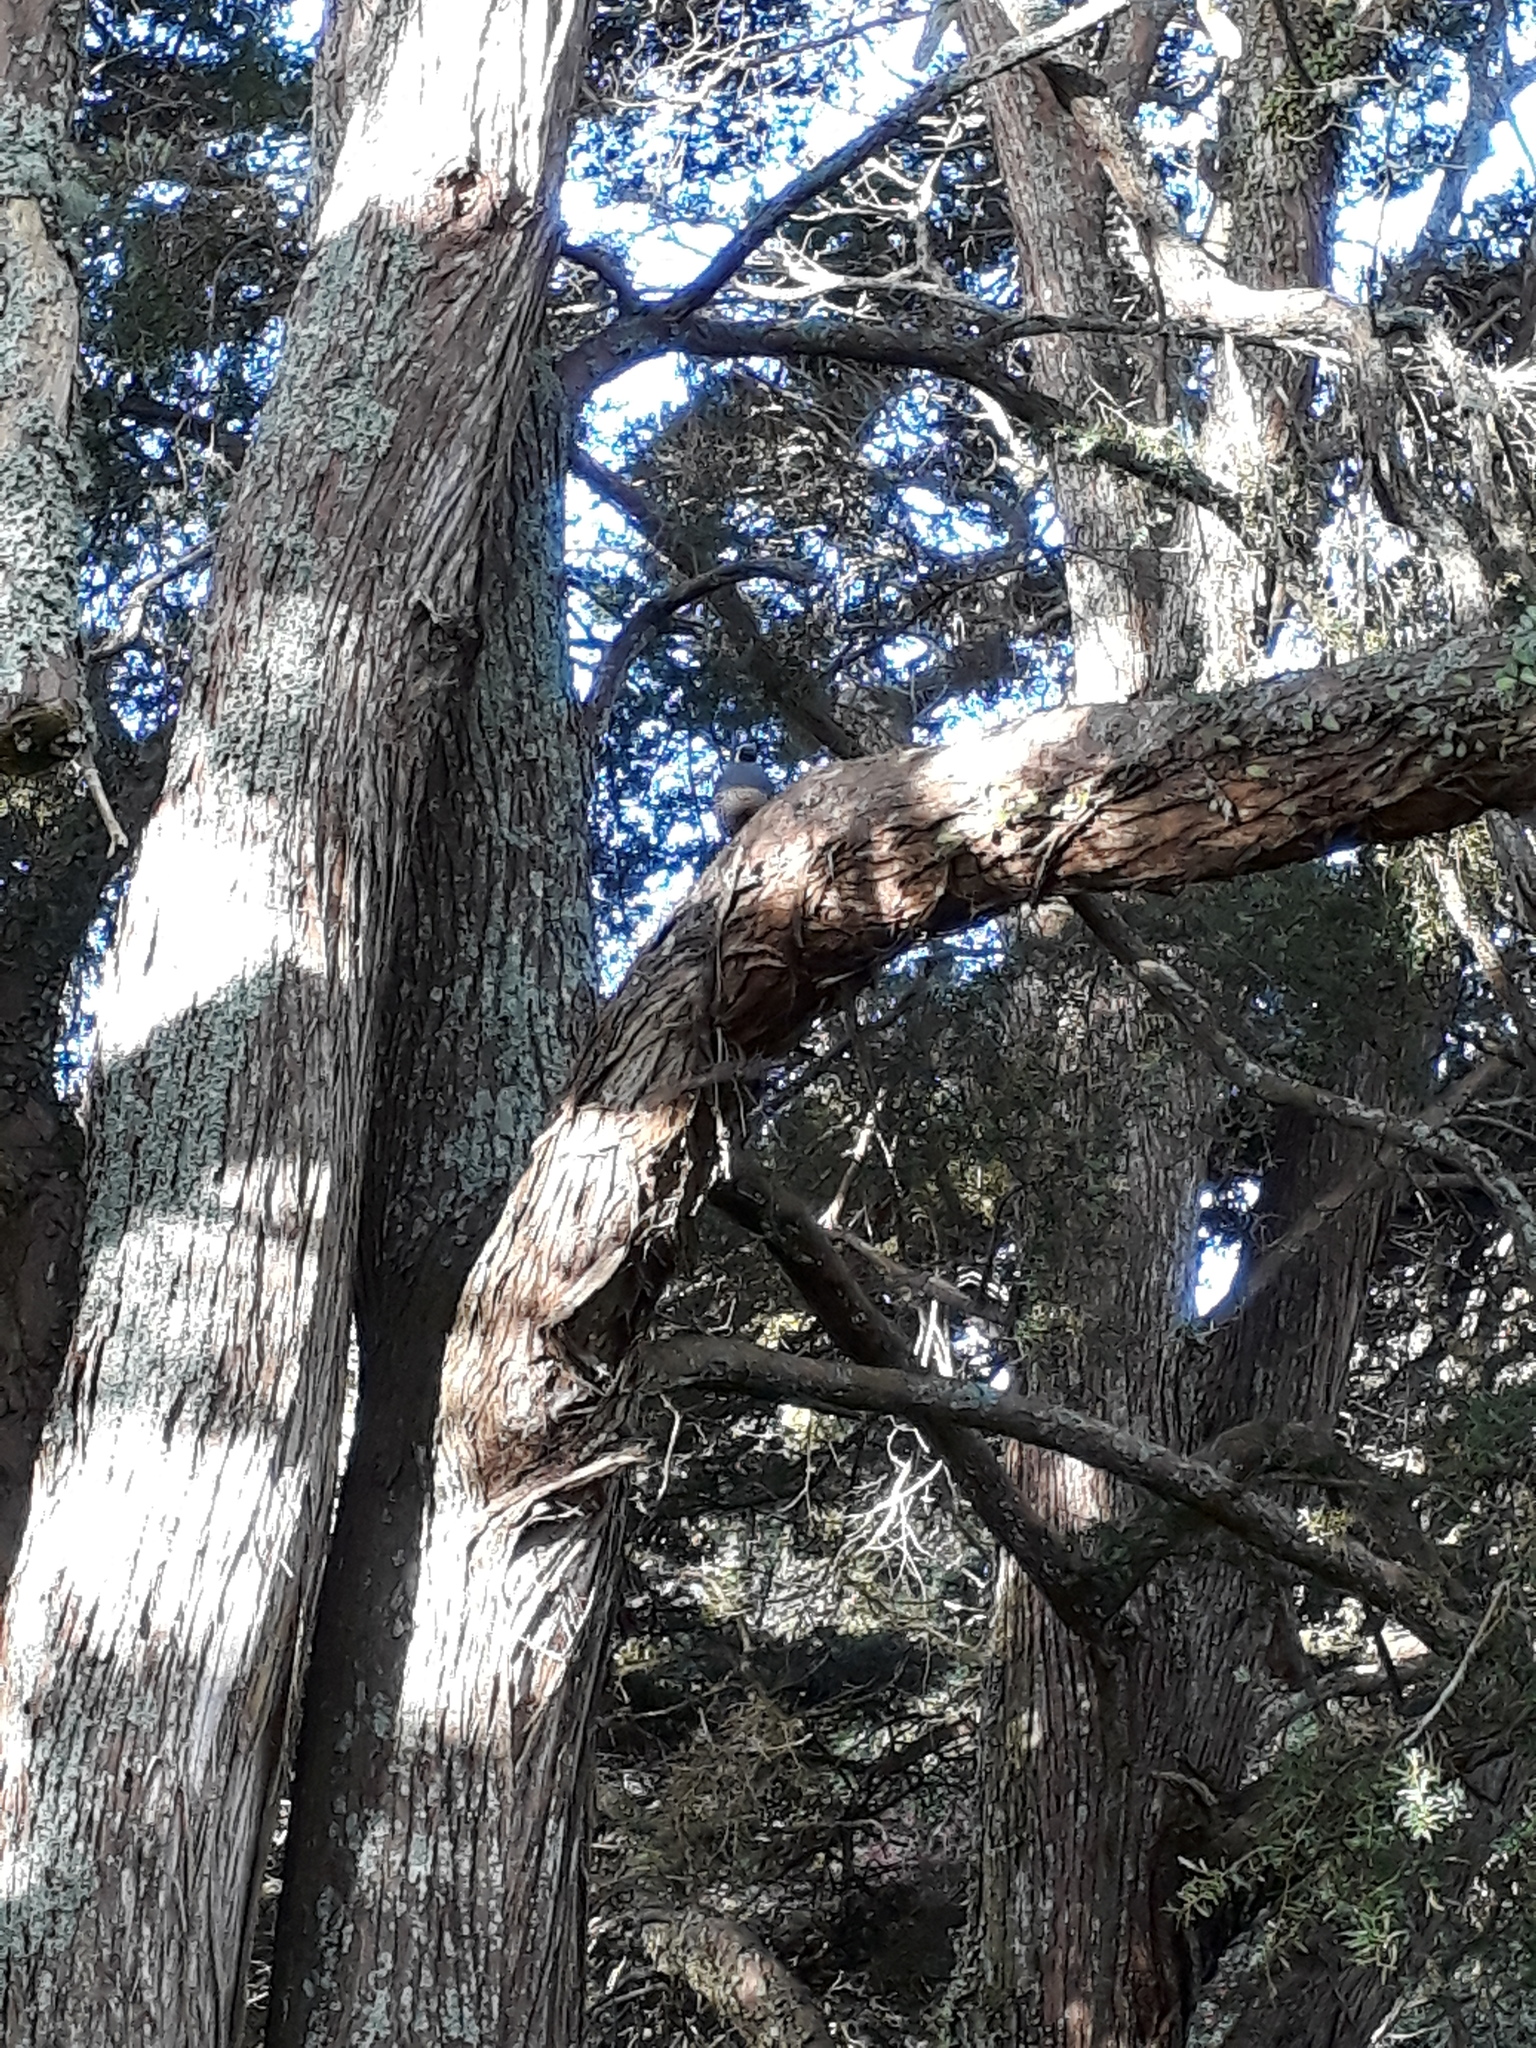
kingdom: Animalia
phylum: Chordata
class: Aves
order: Galliformes
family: Odontophoridae
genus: Callipepla
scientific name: Callipepla californica
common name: California quail
